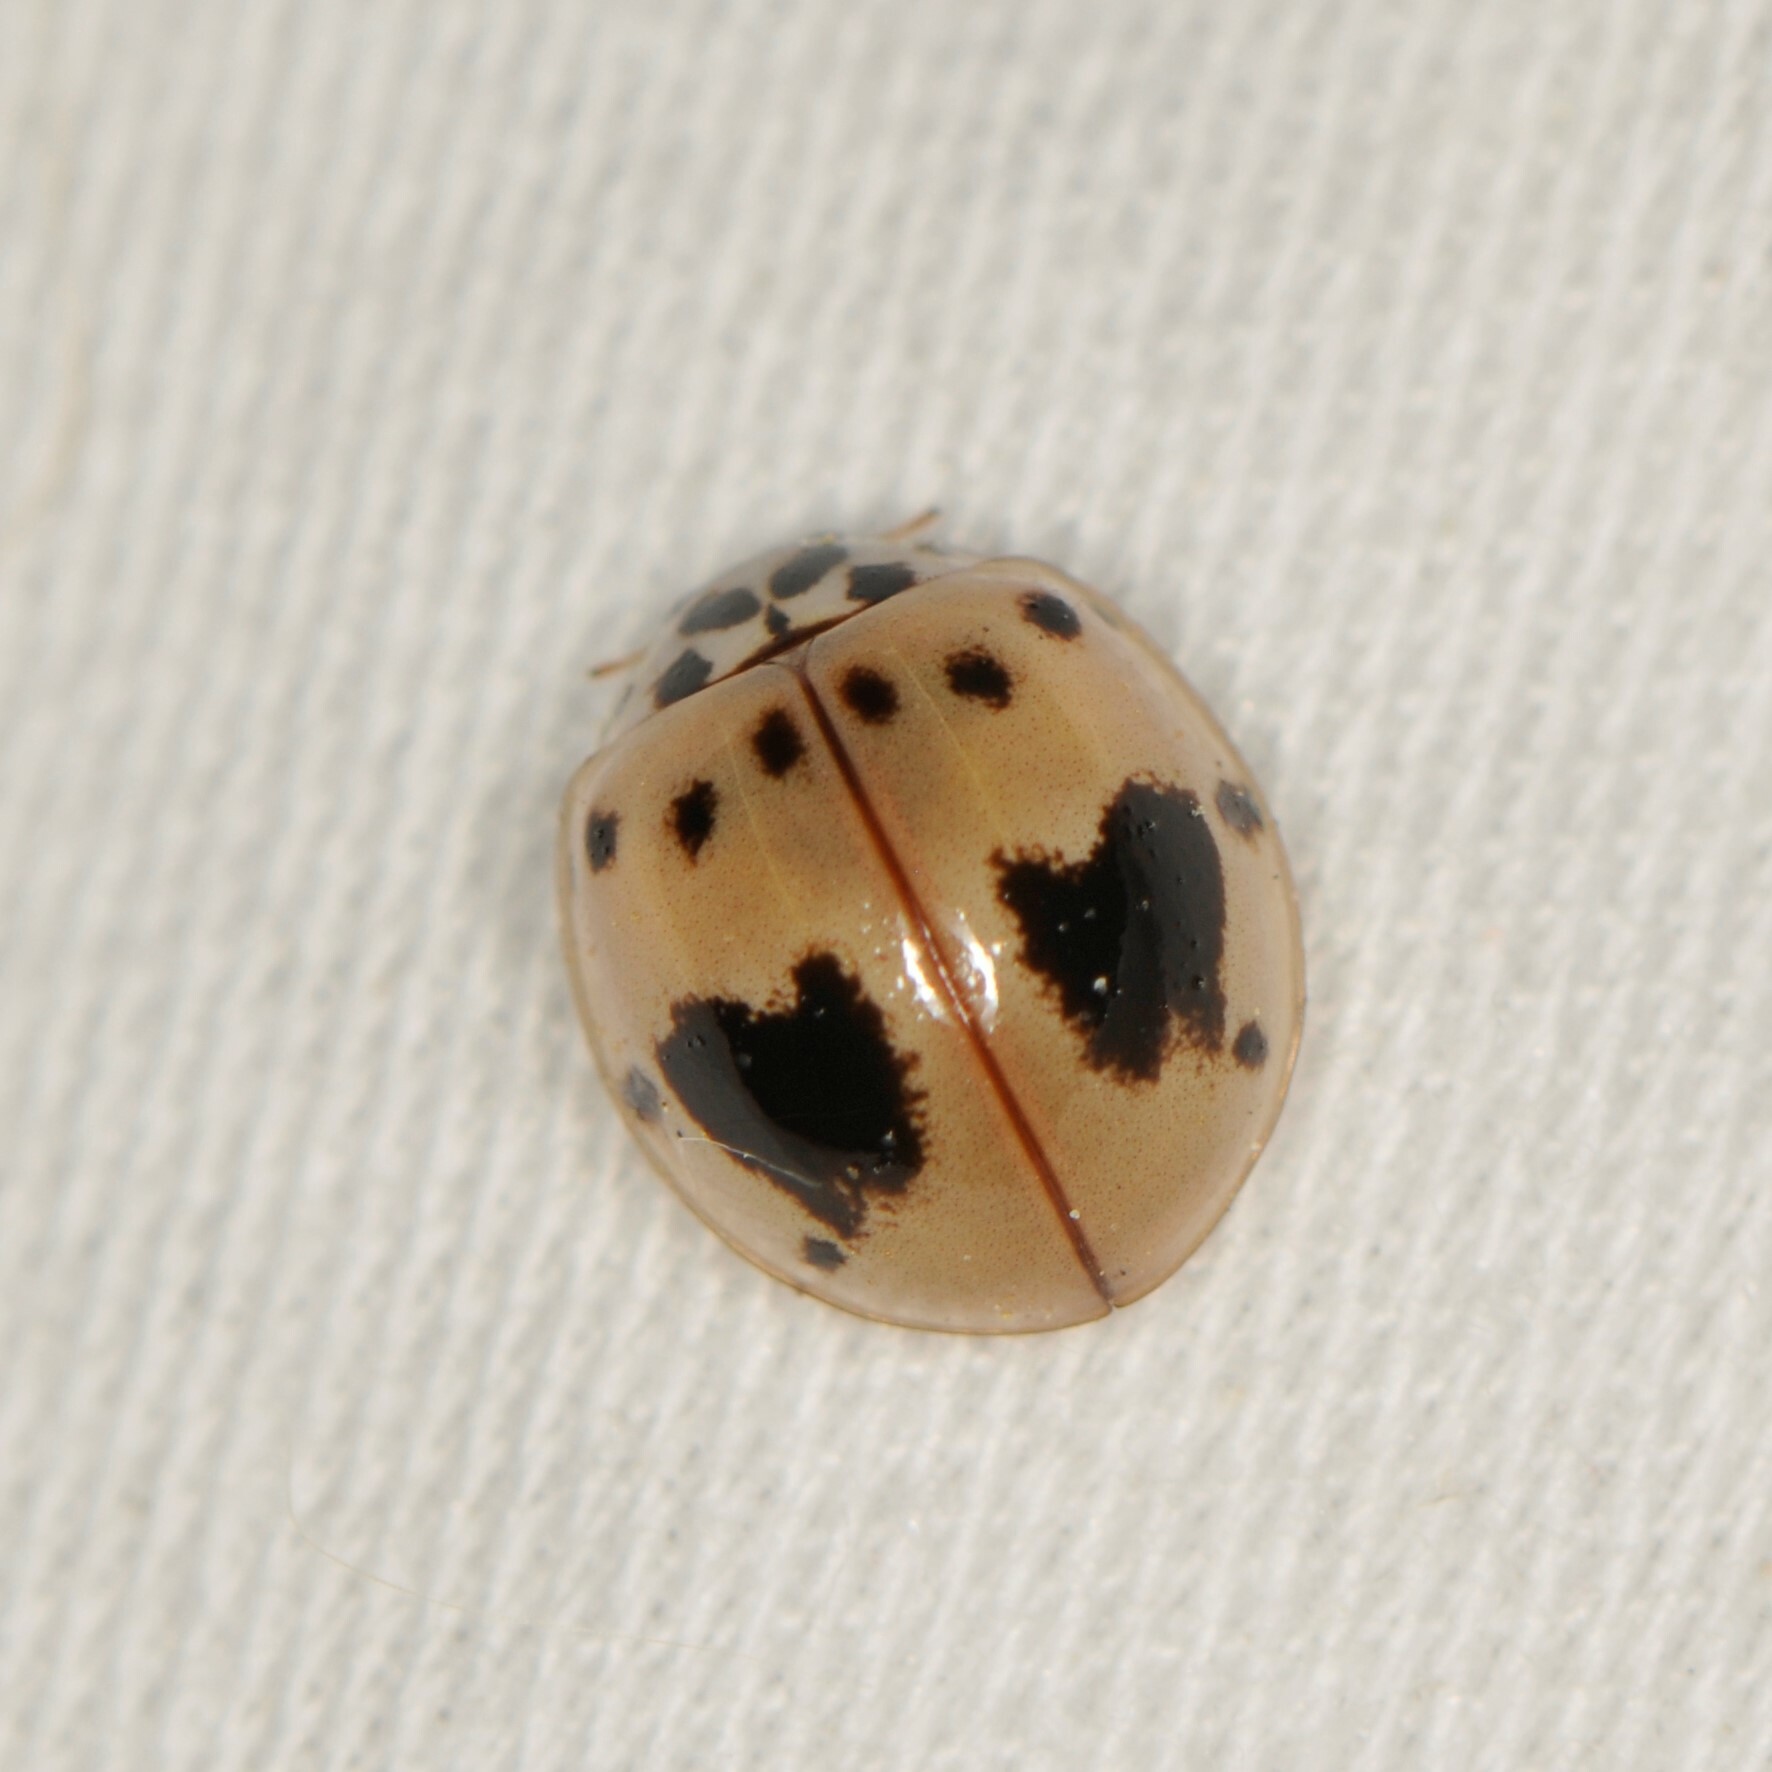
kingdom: Animalia
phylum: Arthropoda
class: Insecta
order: Coleoptera
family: Coccinellidae
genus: Olla
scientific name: Olla v-nigrum
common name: Ashy gray lady beetle
